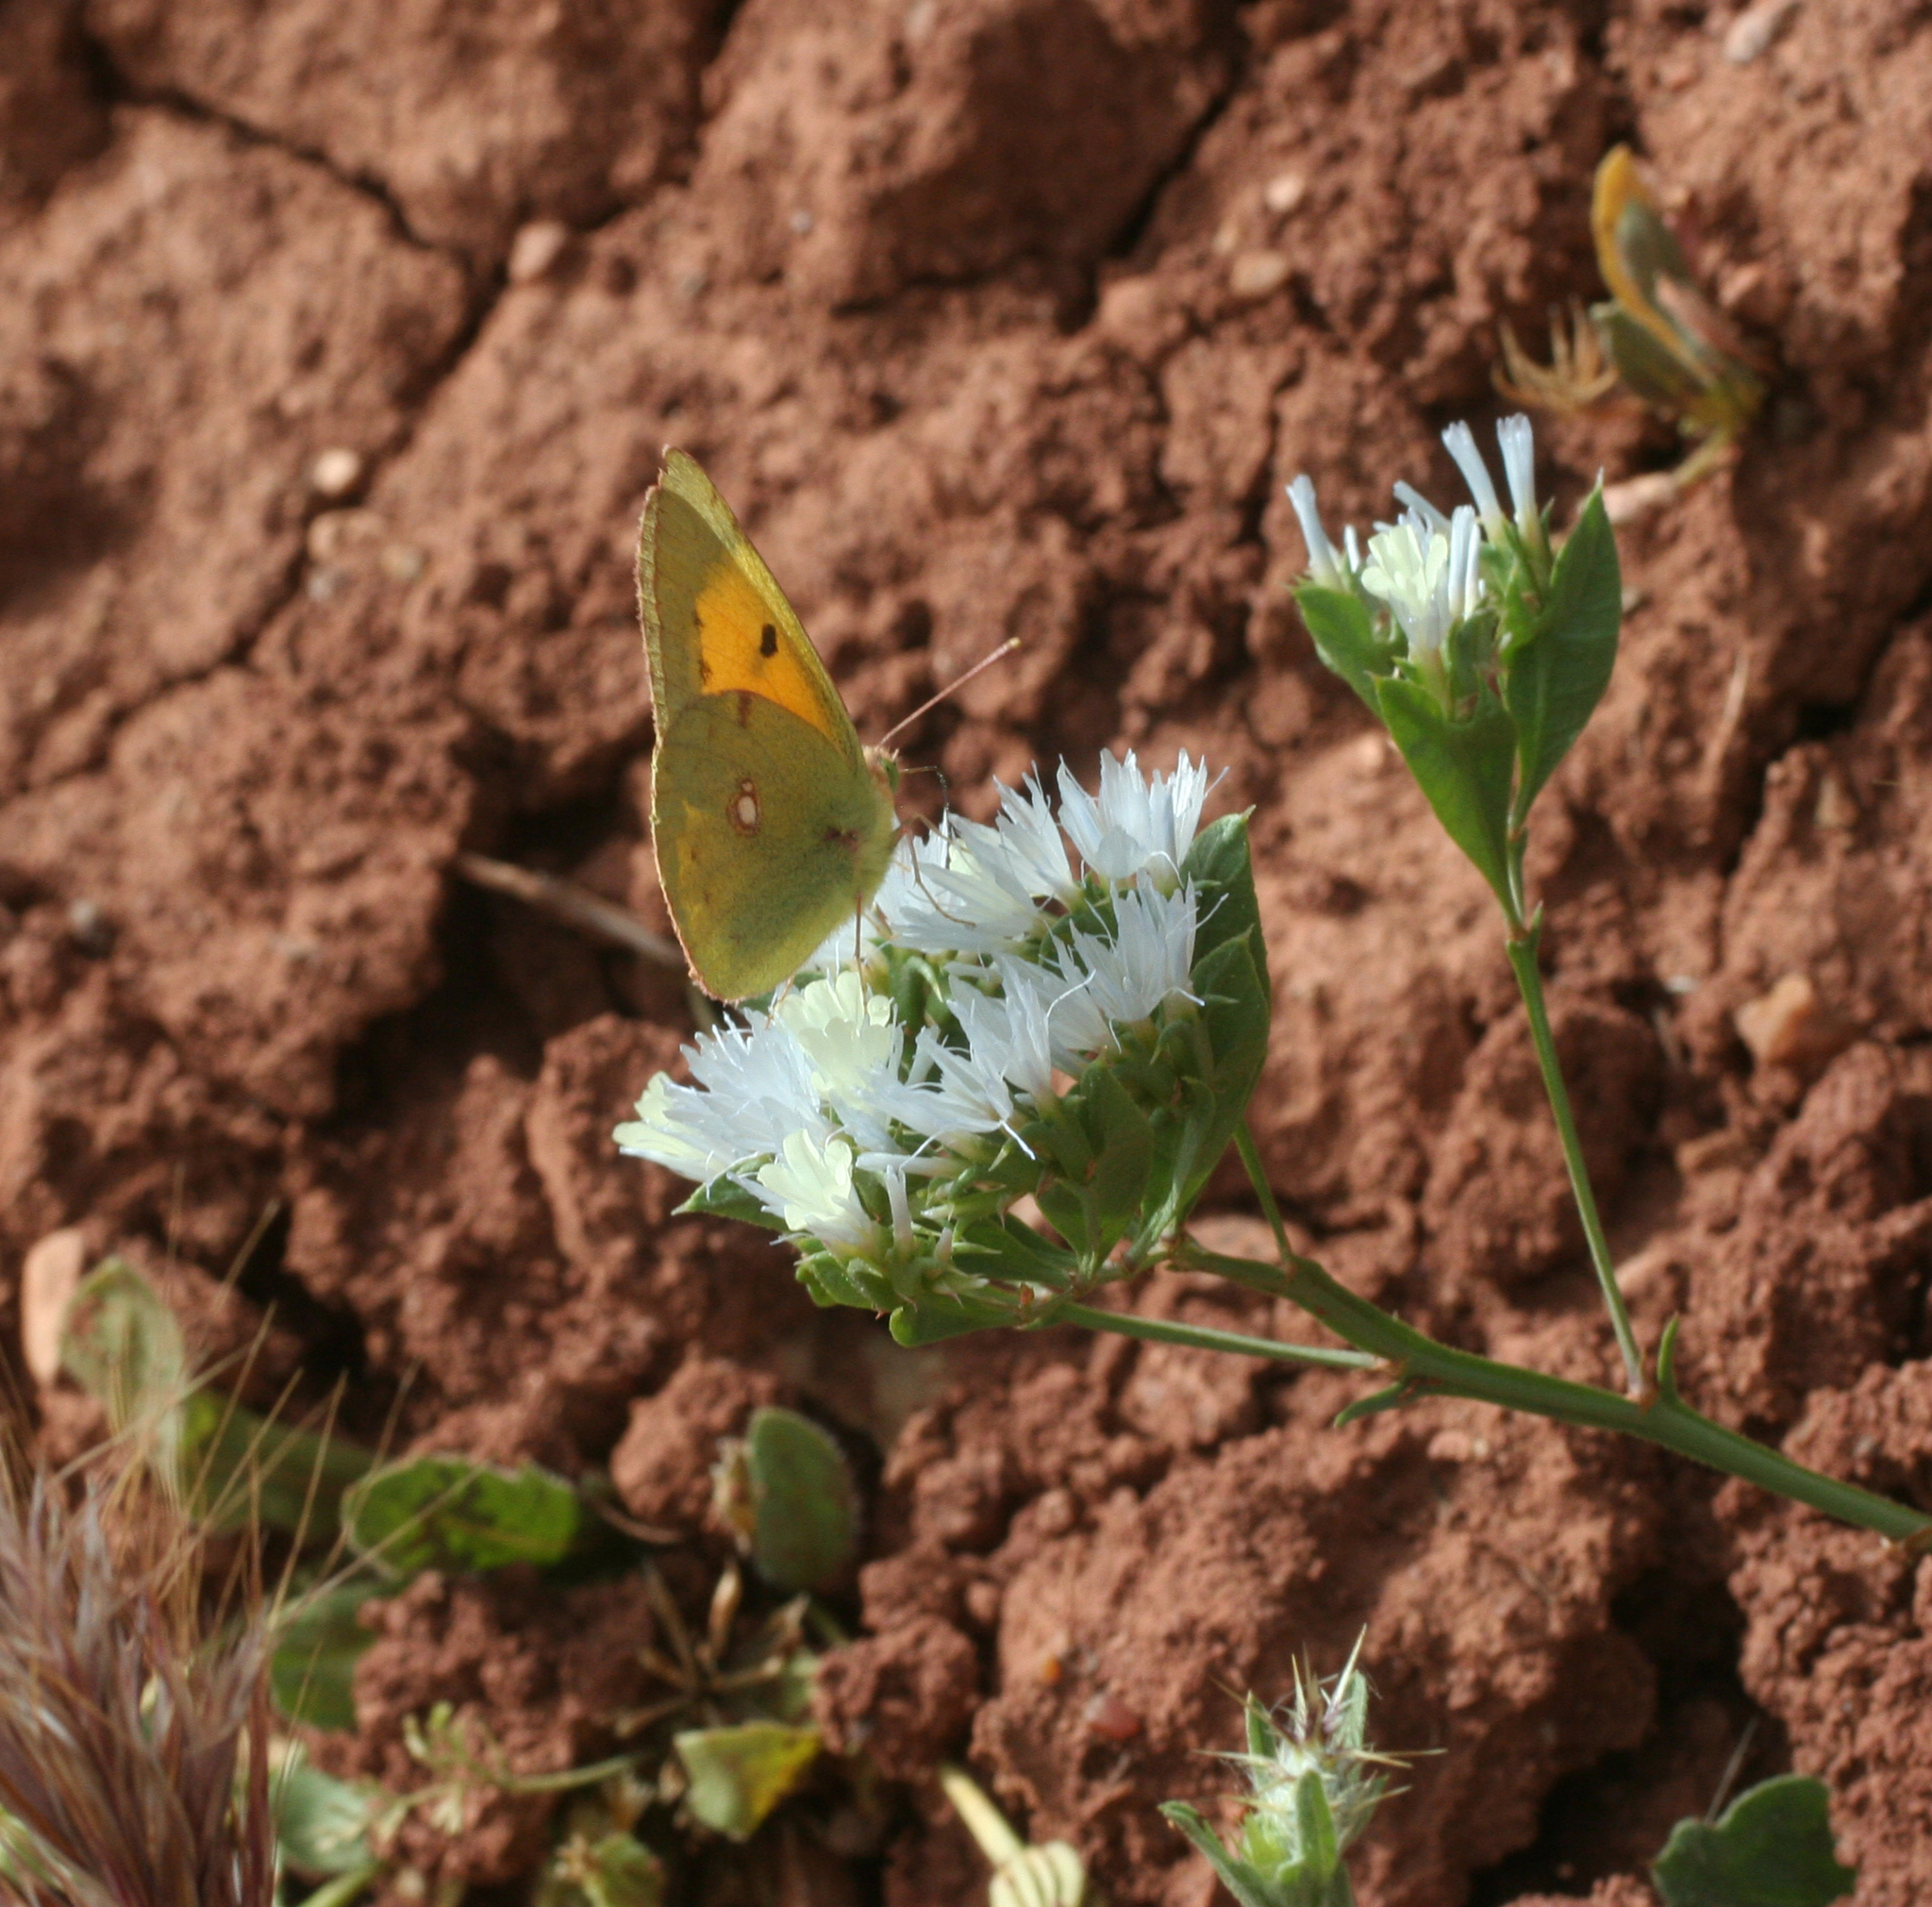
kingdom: Animalia
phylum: Arthropoda
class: Insecta
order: Lepidoptera
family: Pieridae
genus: Colias
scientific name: Colias croceus
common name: Clouded yellow
